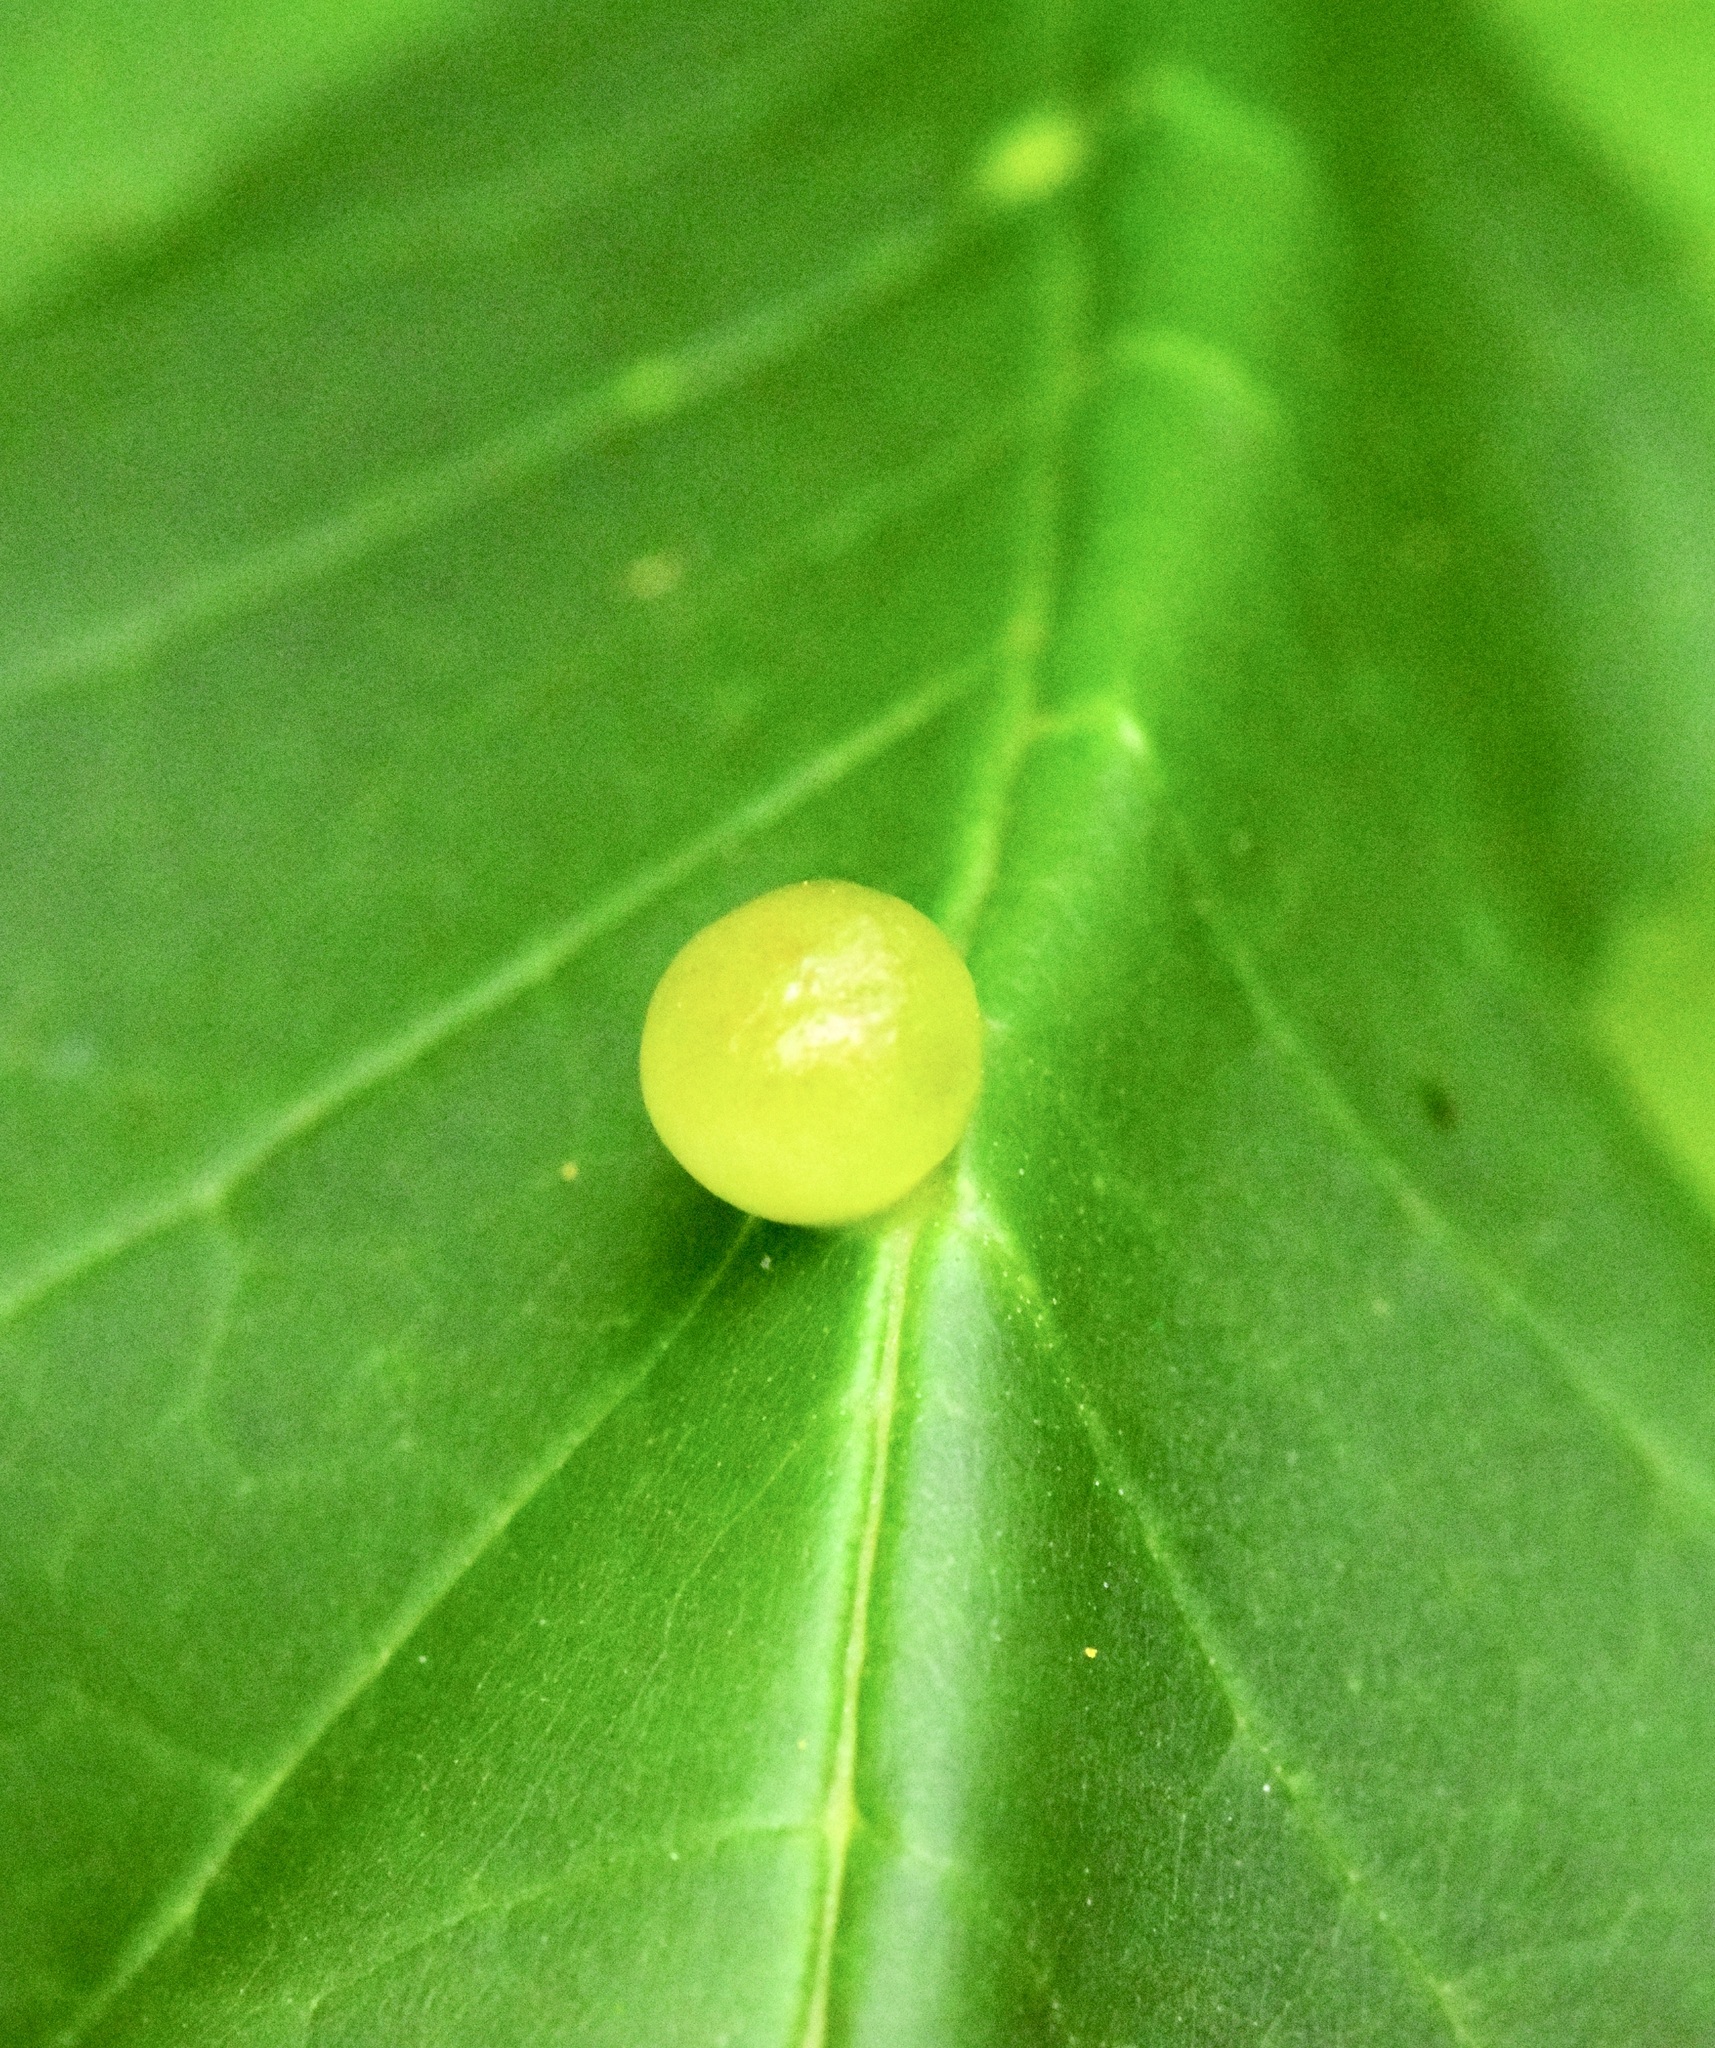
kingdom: Animalia
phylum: Arthropoda
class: Insecta
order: Diptera
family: Cecidomyiidae
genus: Dasineura
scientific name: Dasineura pellex
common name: Ash bullet gall midge
